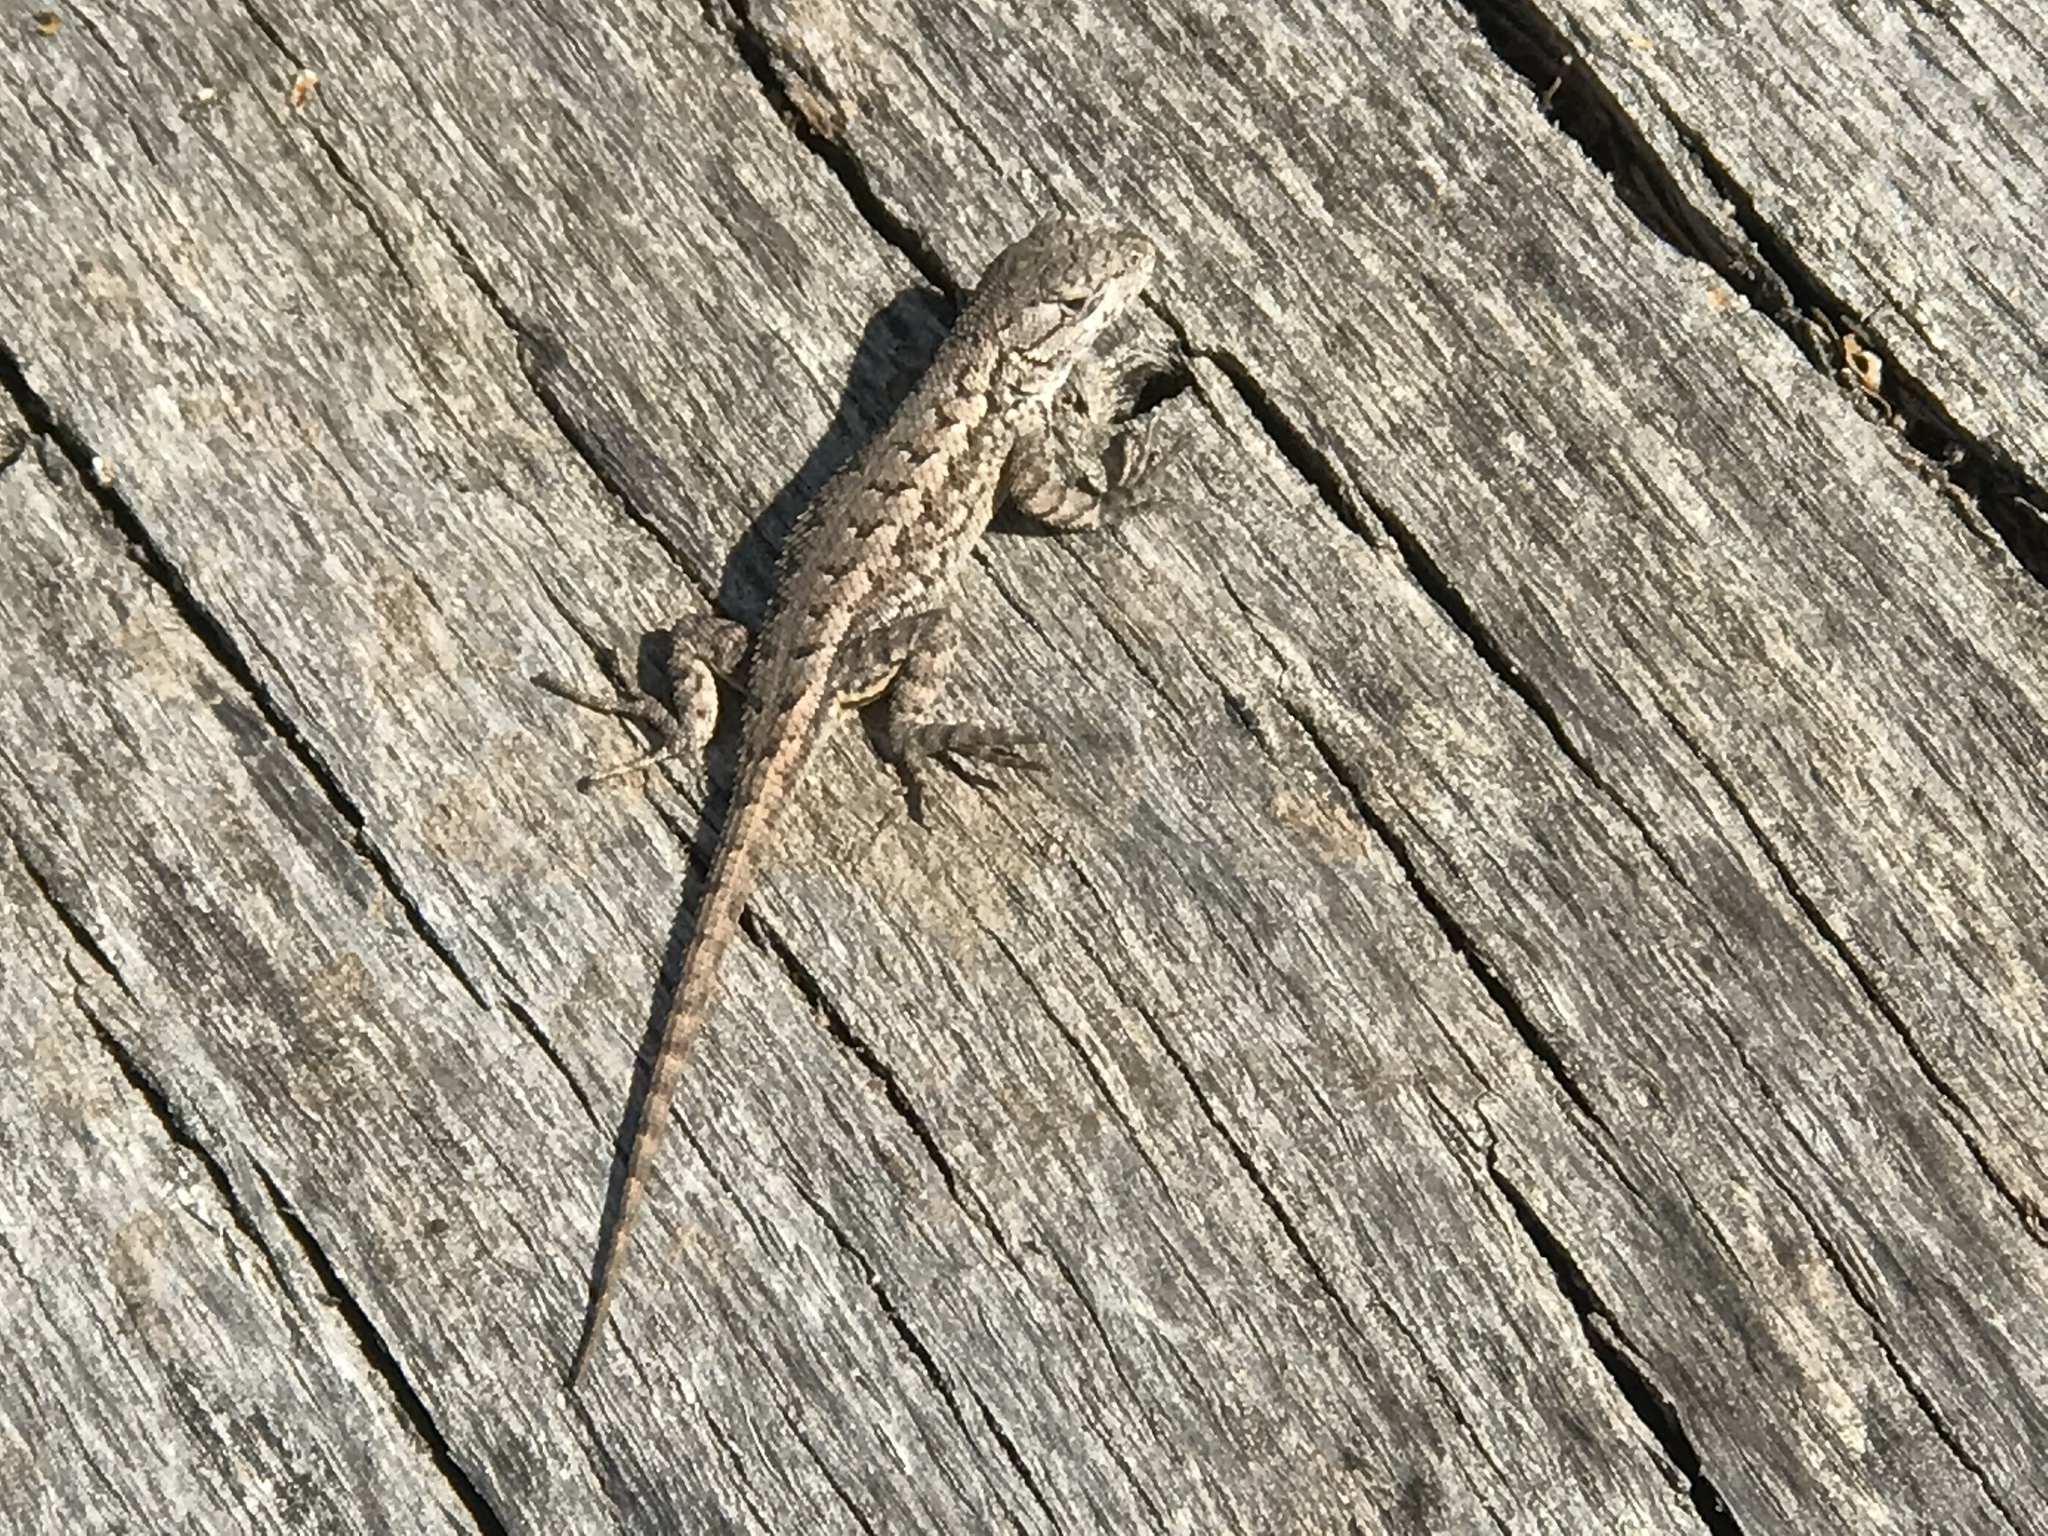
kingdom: Animalia
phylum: Chordata
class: Squamata
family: Phrynosomatidae
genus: Sceloporus
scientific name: Sceloporus occidentalis
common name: Western fence lizard
